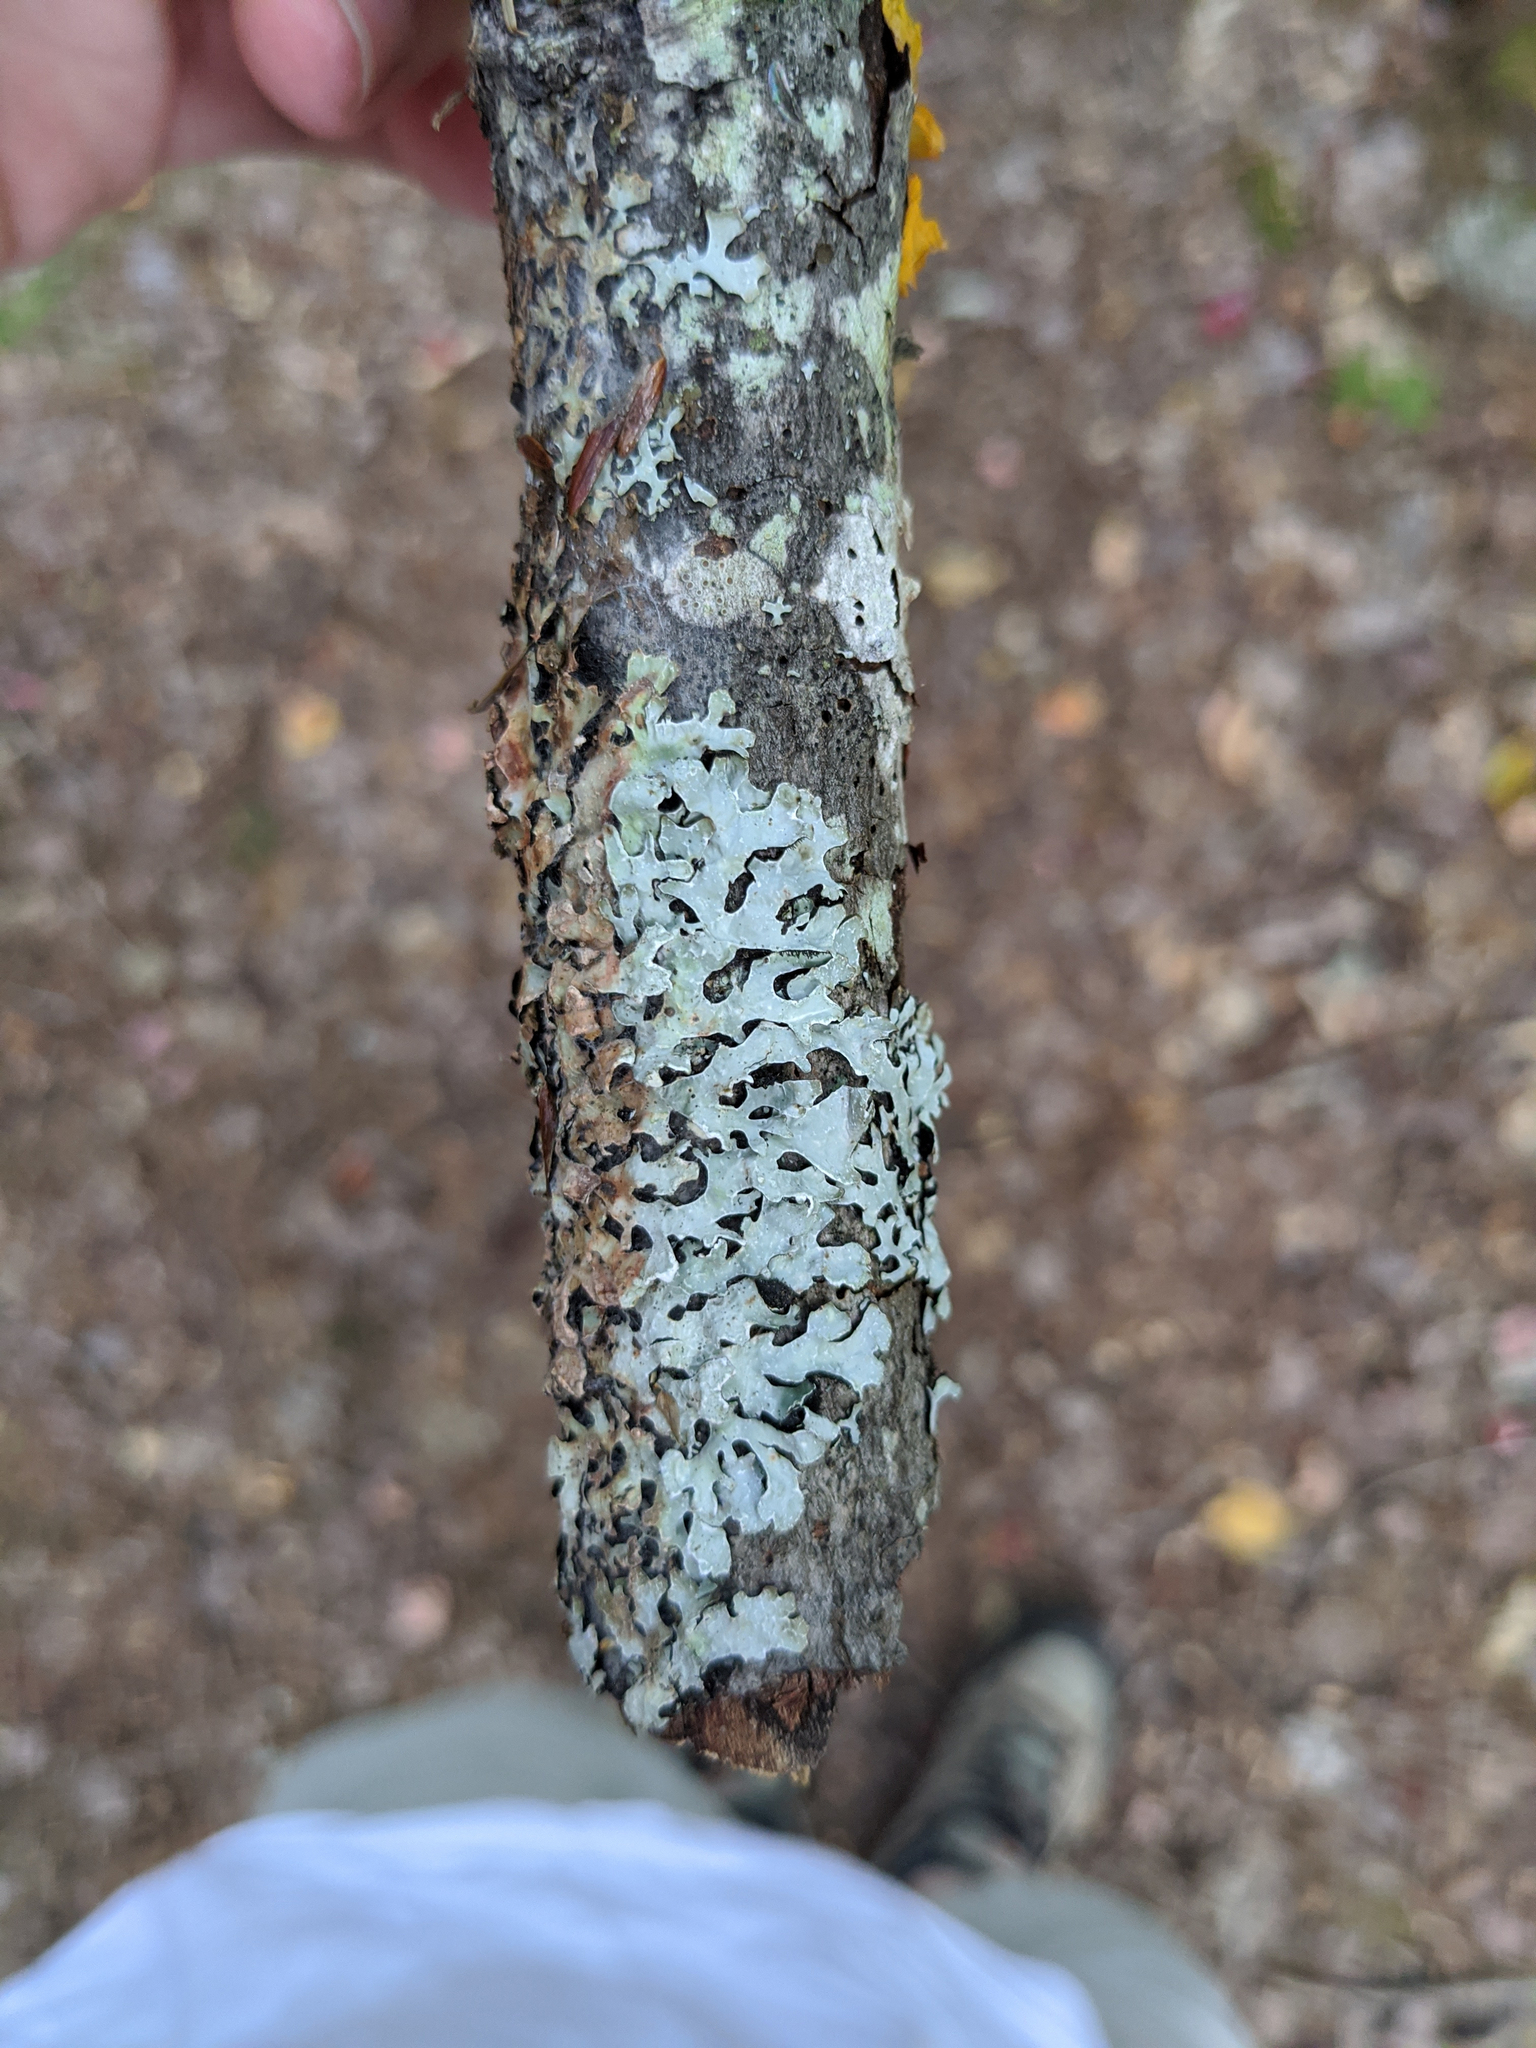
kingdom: Fungi
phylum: Ascomycota
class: Lecanoromycetes
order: Lecanorales
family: Parmeliaceae
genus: Parmelia
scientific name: Parmelia sulcata
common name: Netted shield lichen
